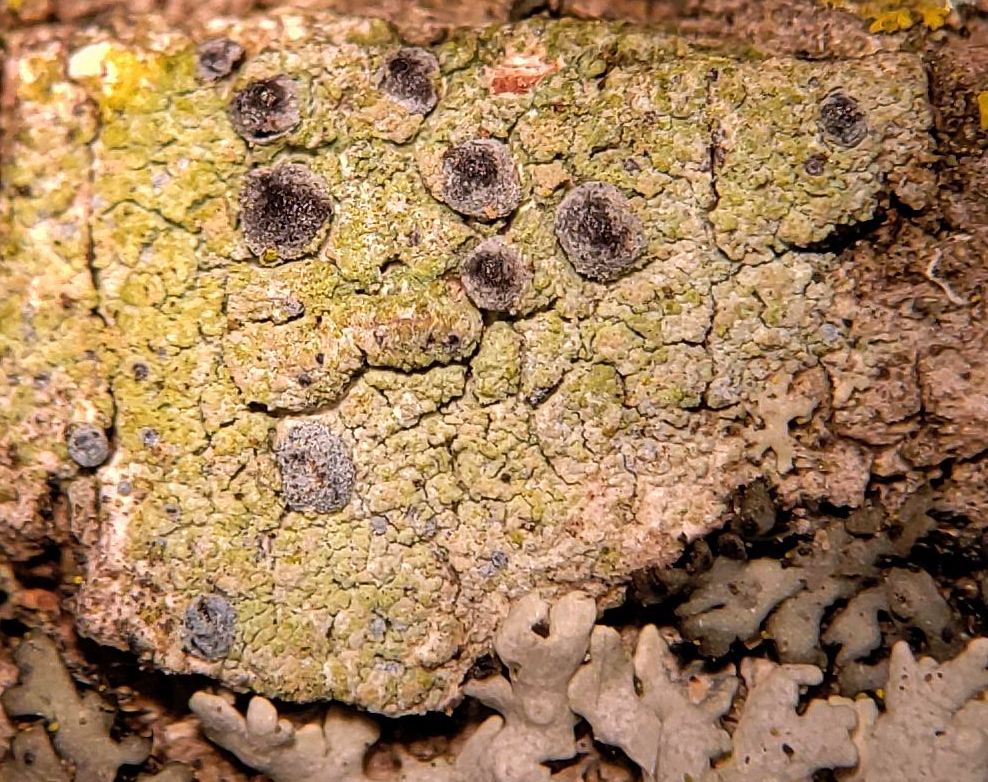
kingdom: Fungi
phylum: Ascomycota
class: Arthoniomycetes
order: Arthoniales
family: Chrysotrichaceae
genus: Chrysothrix
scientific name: Chrysothrix caesia
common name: Frosted comma lichen
